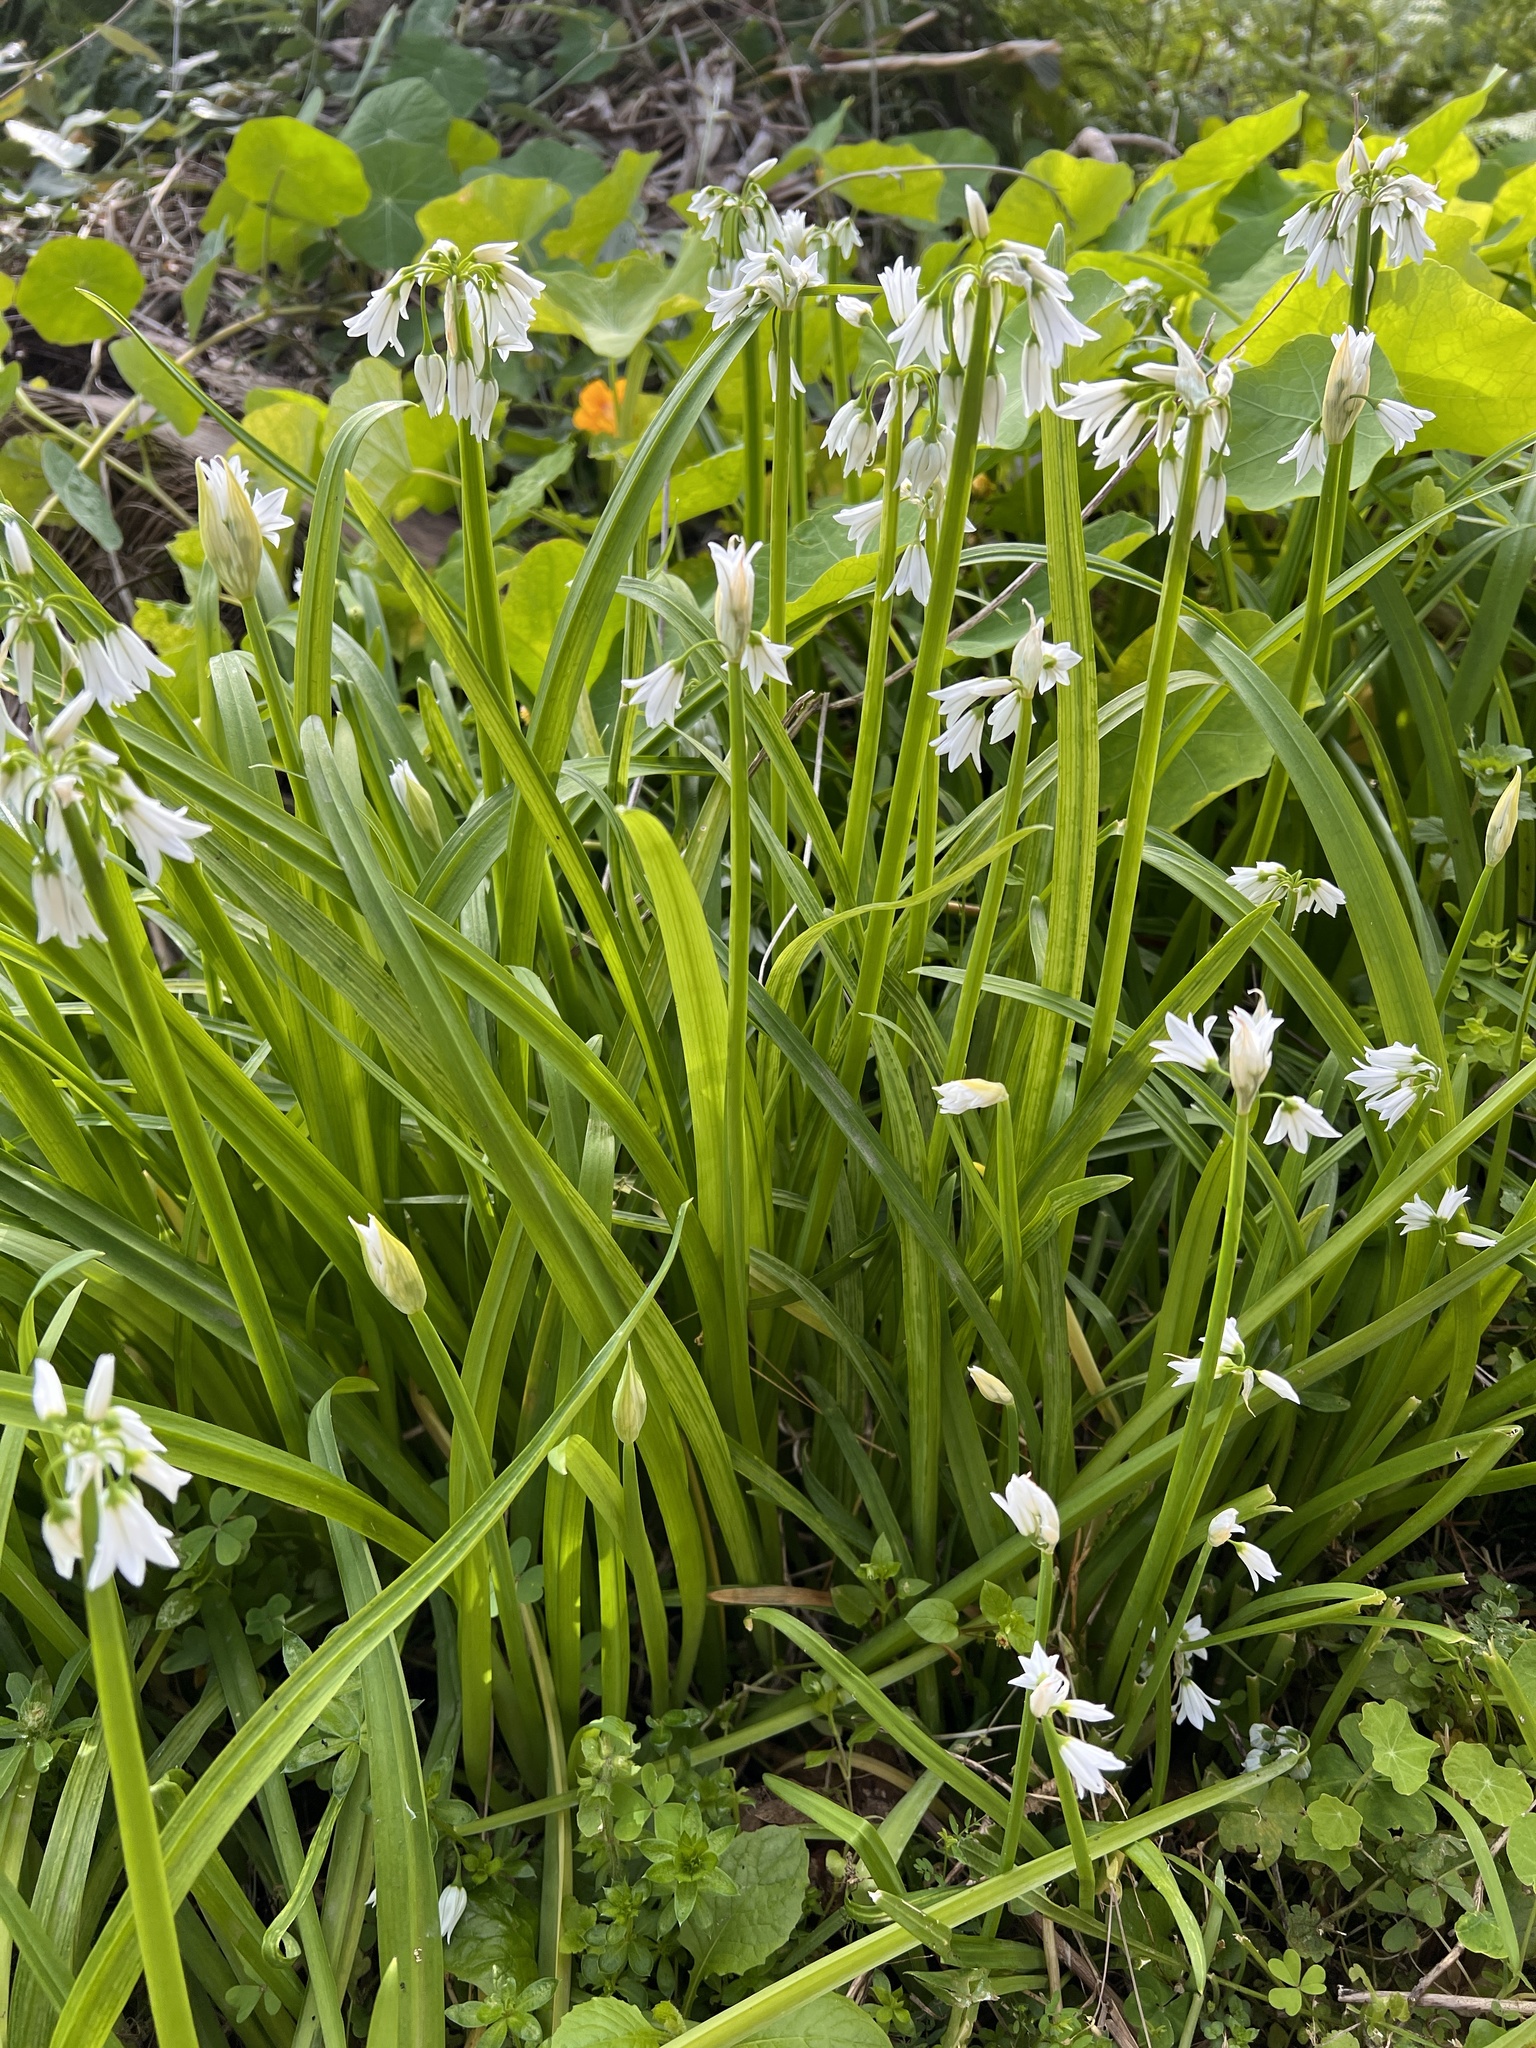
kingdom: Plantae
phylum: Tracheophyta
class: Liliopsida
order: Asparagales
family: Amaryllidaceae
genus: Allium
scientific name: Allium triquetrum
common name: Three-cornered garlic
